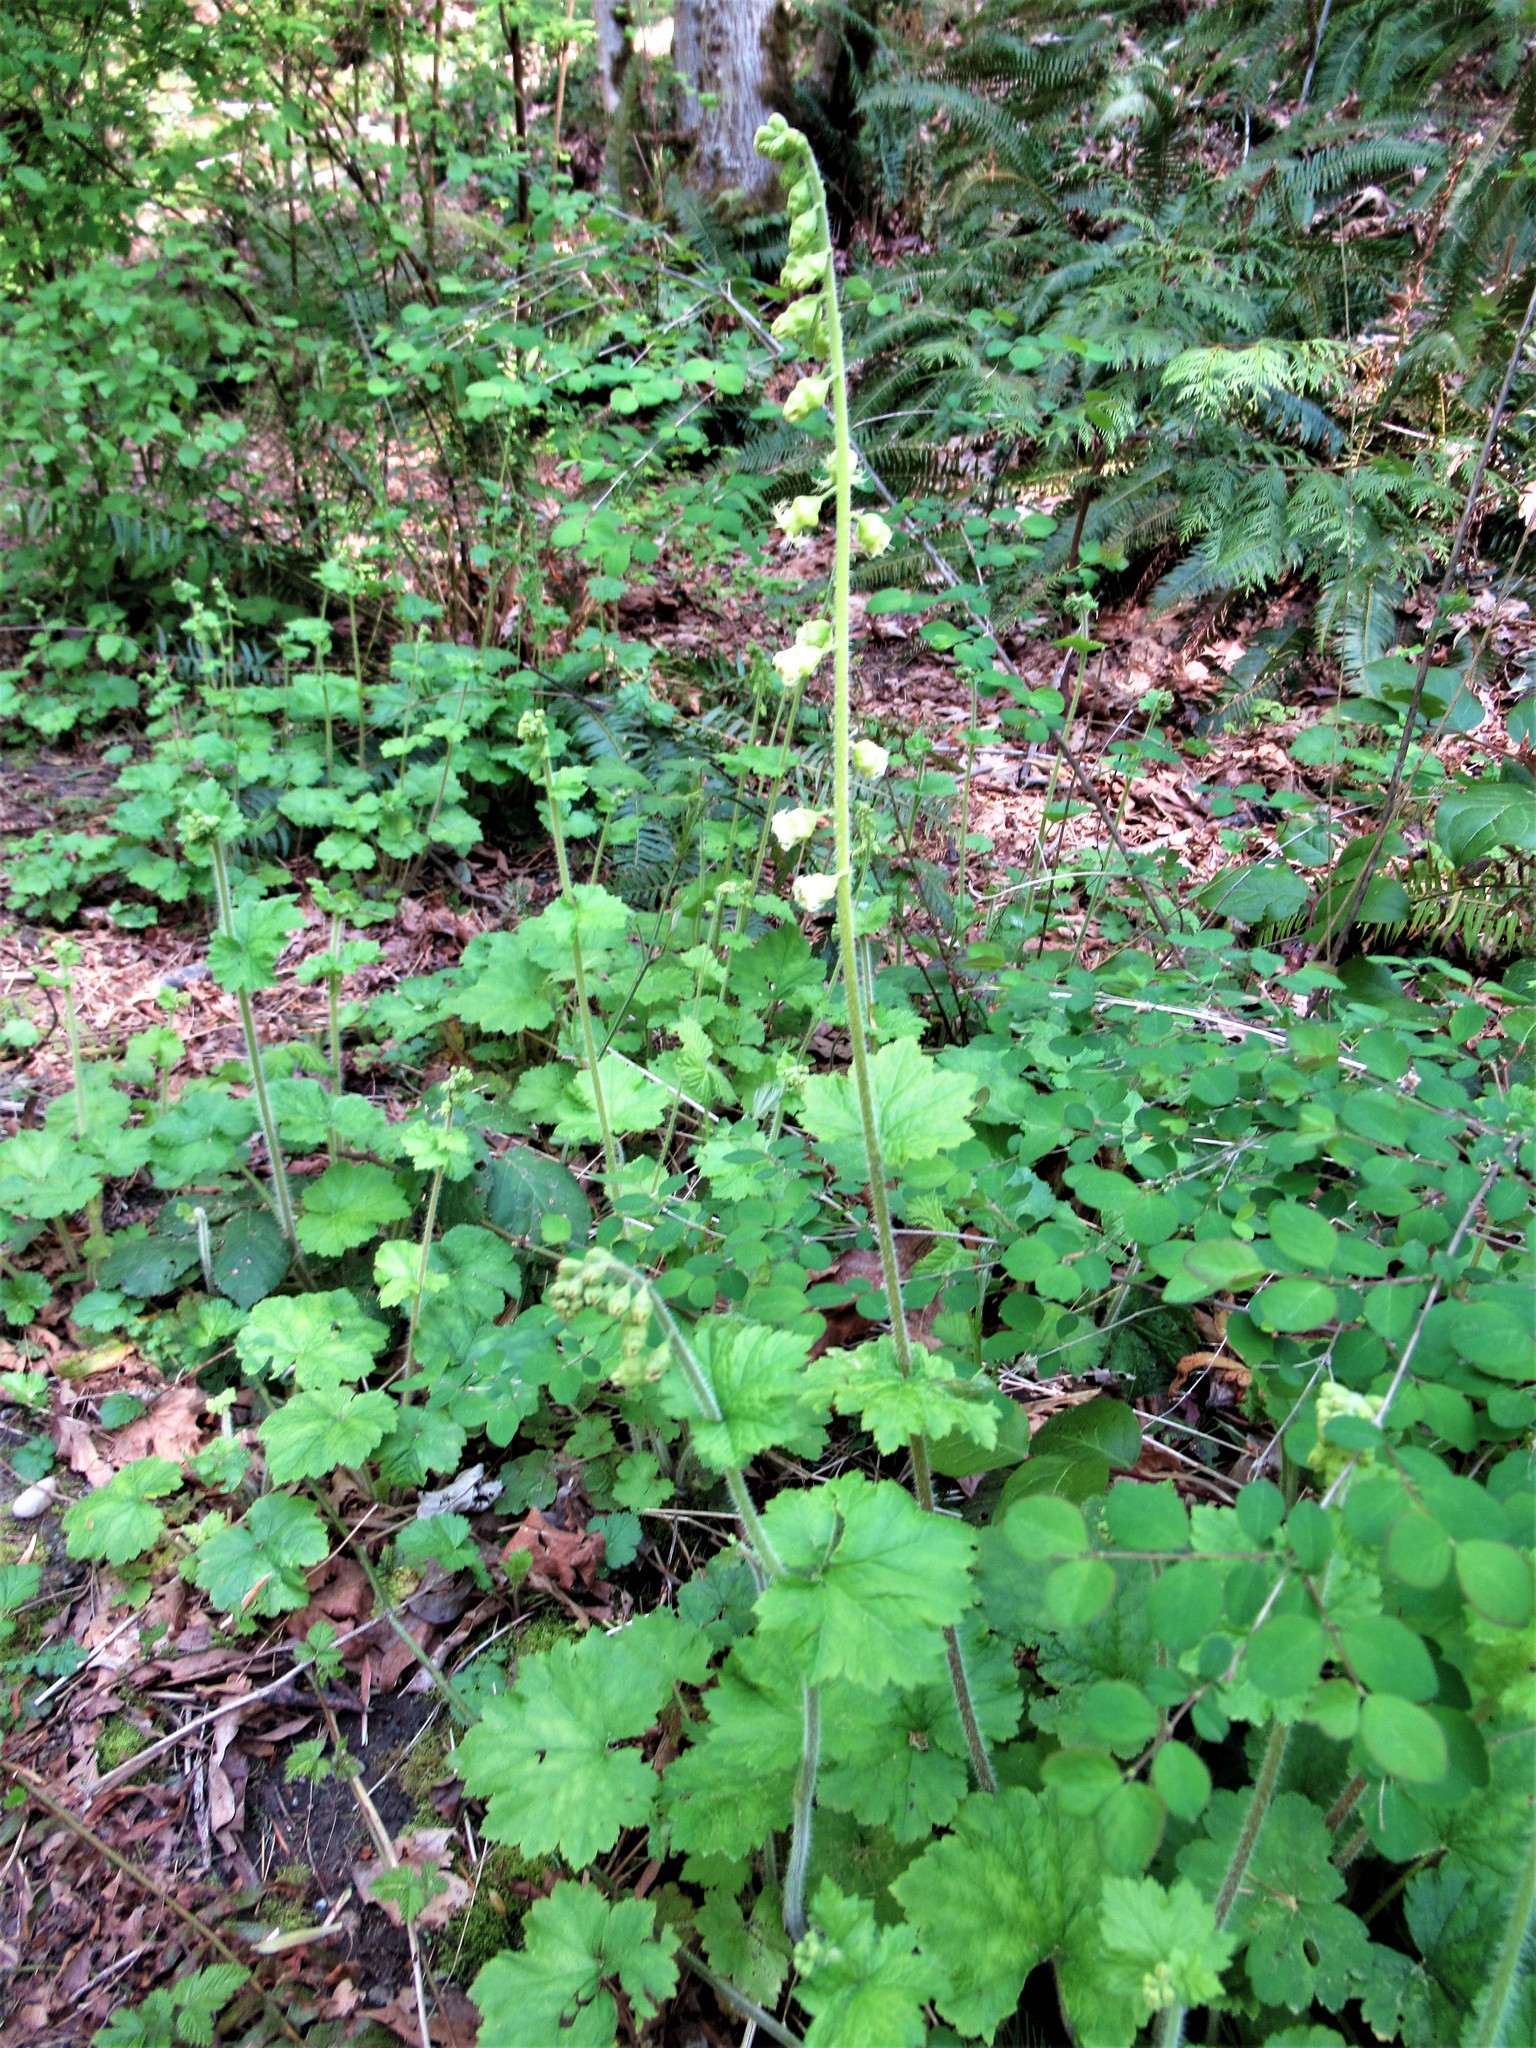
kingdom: Plantae
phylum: Tracheophyta
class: Magnoliopsida
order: Saxifragales
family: Saxifragaceae
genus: Tellima
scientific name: Tellima grandiflora
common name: Fringecups
